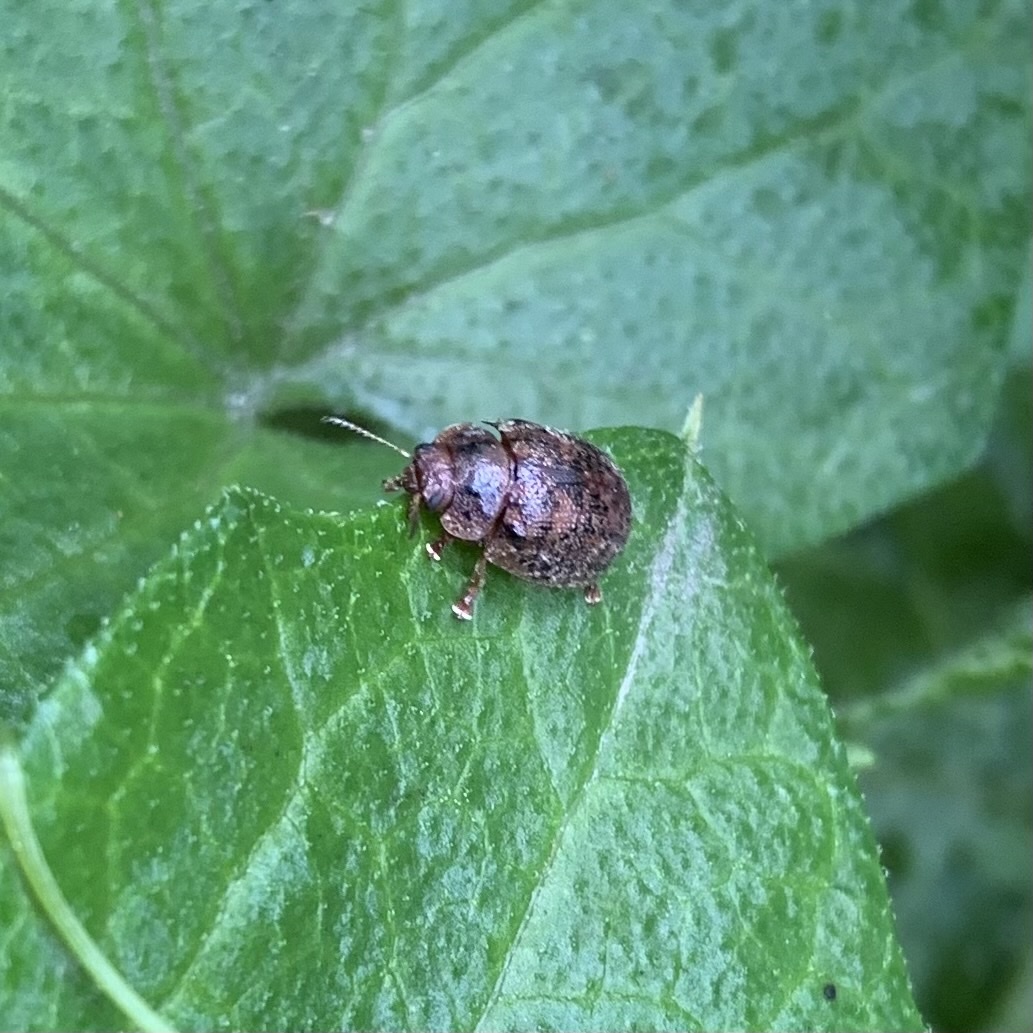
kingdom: Animalia
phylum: Arthropoda
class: Insecta
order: Coleoptera
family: Chrysomelidae
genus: Trachymela
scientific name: Trachymela sloanei
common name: Australian tortoise beetle
